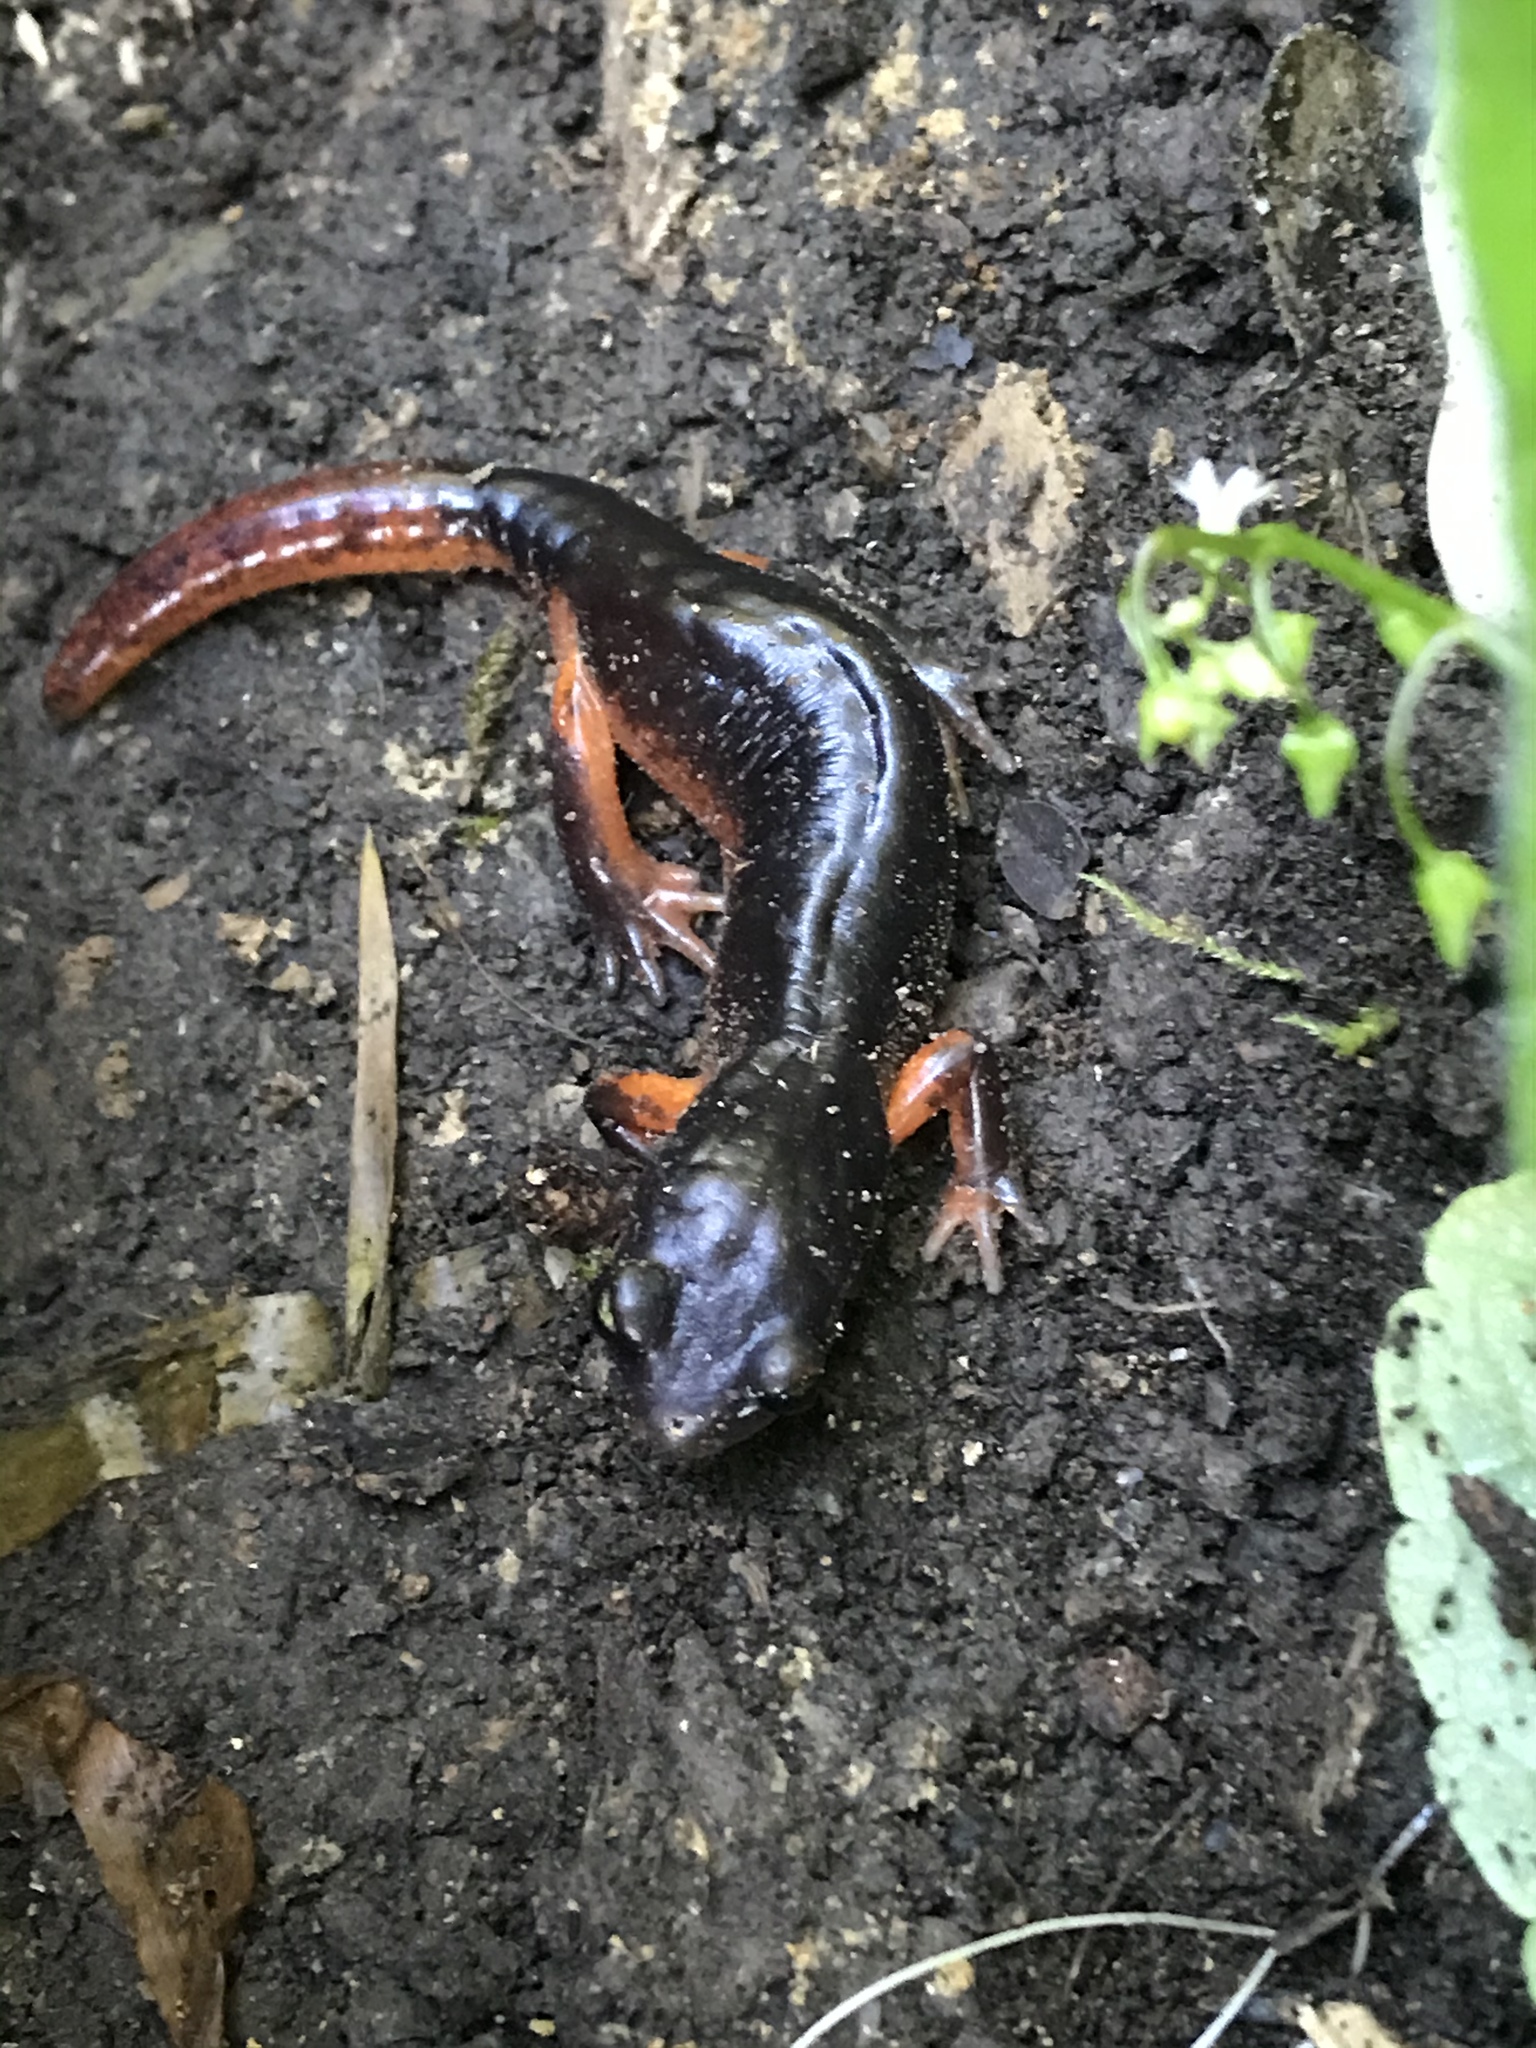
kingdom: Animalia
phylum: Chordata
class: Amphibia
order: Caudata
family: Plethodontidae
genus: Ensatina
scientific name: Ensatina eschscholtzii
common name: Ensatina
